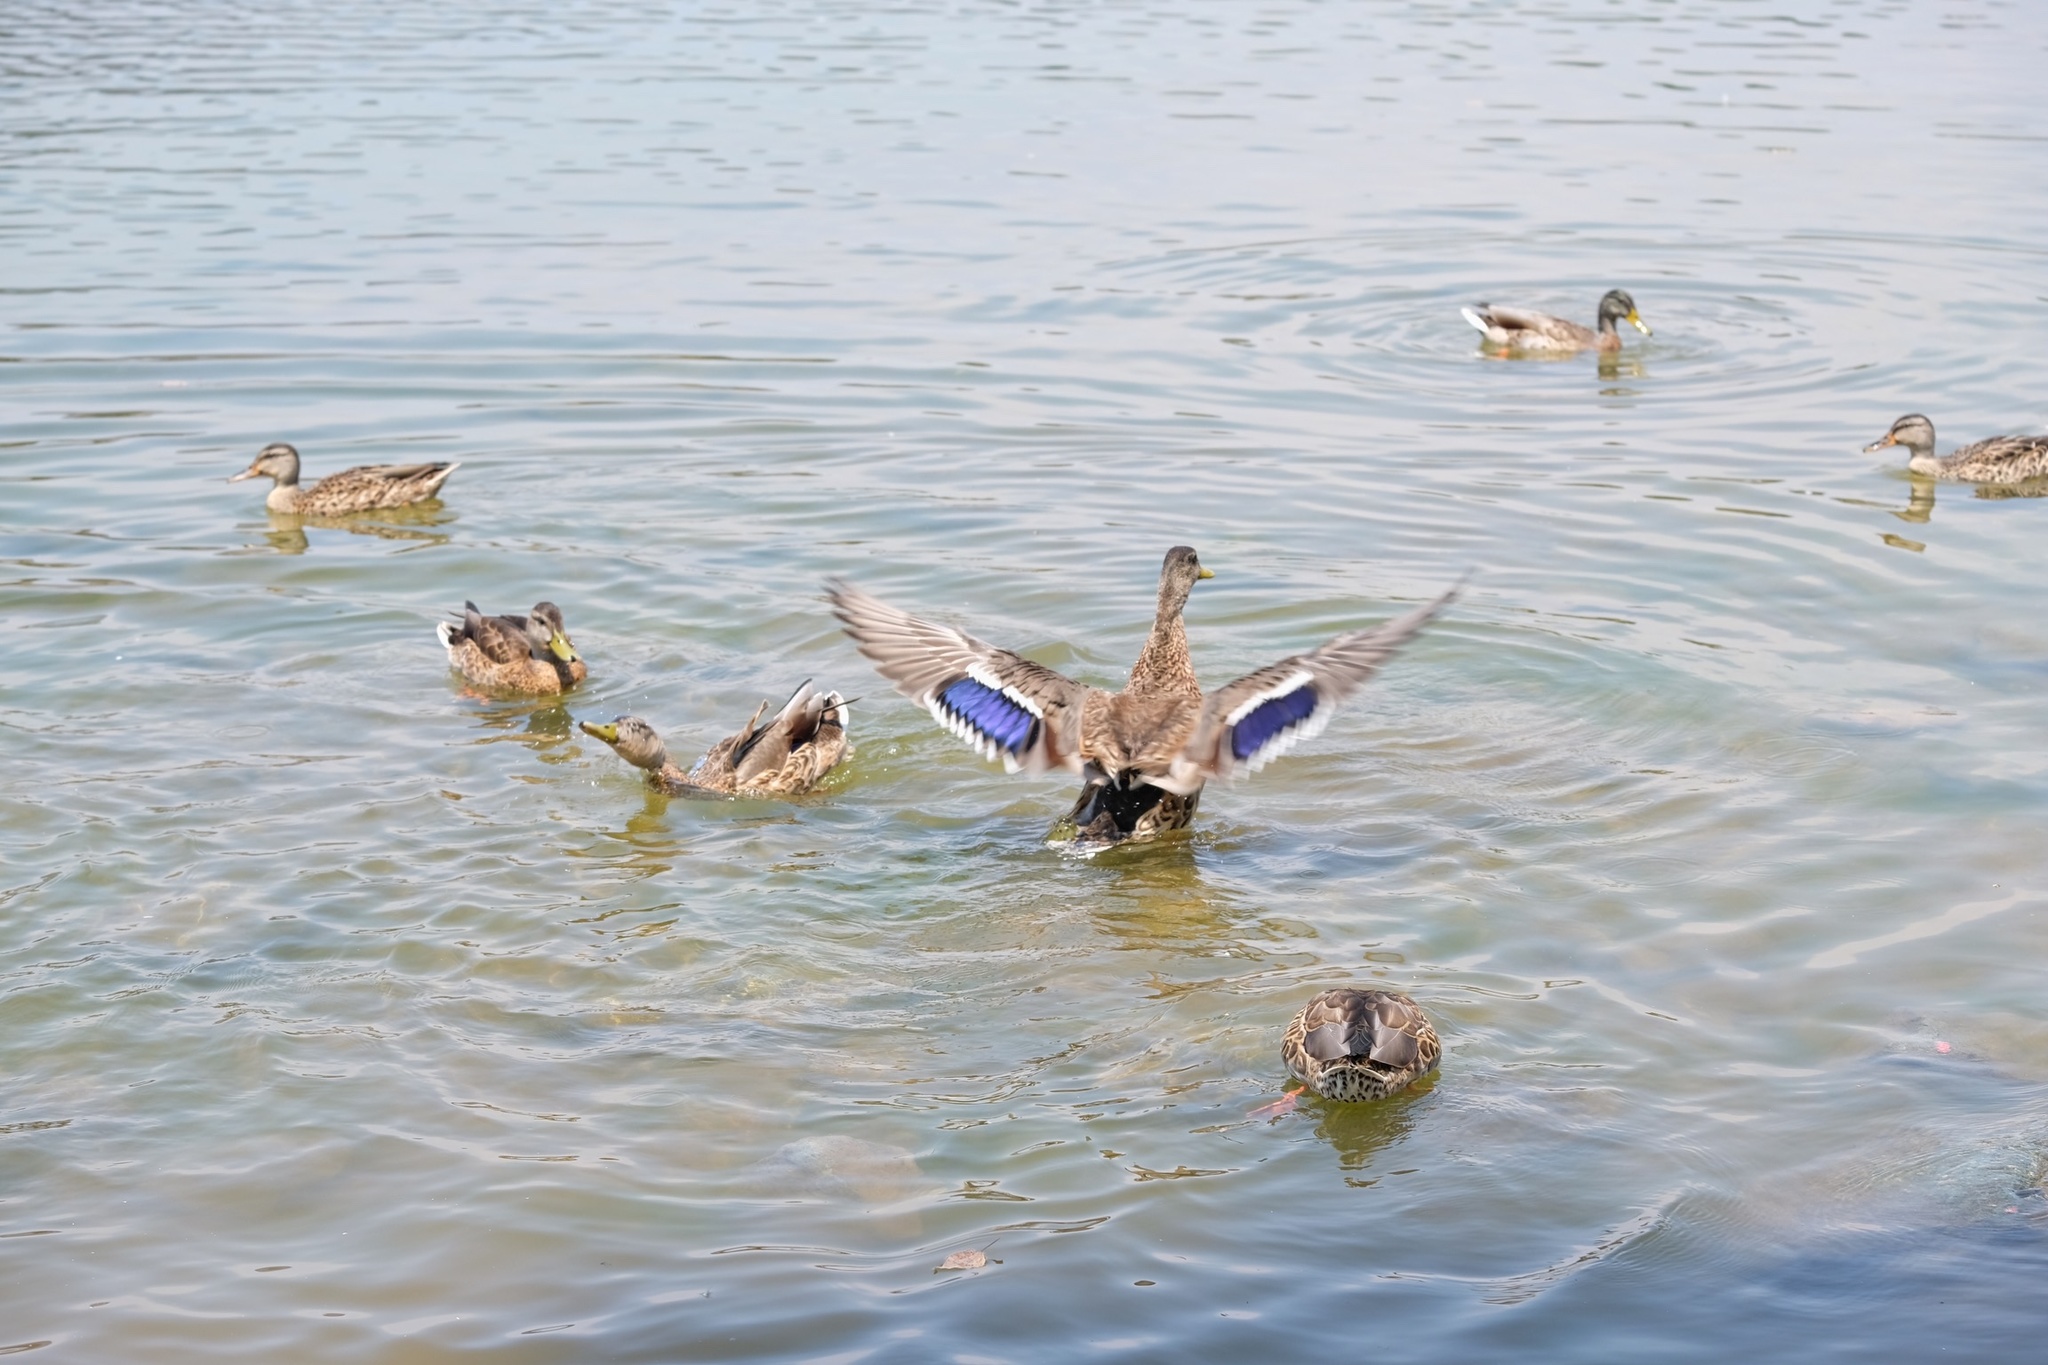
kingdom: Animalia
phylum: Chordata
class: Aves
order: Anseriformes
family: Anatidae
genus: Anas
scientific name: Anas platyrhynchos
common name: Mallard
